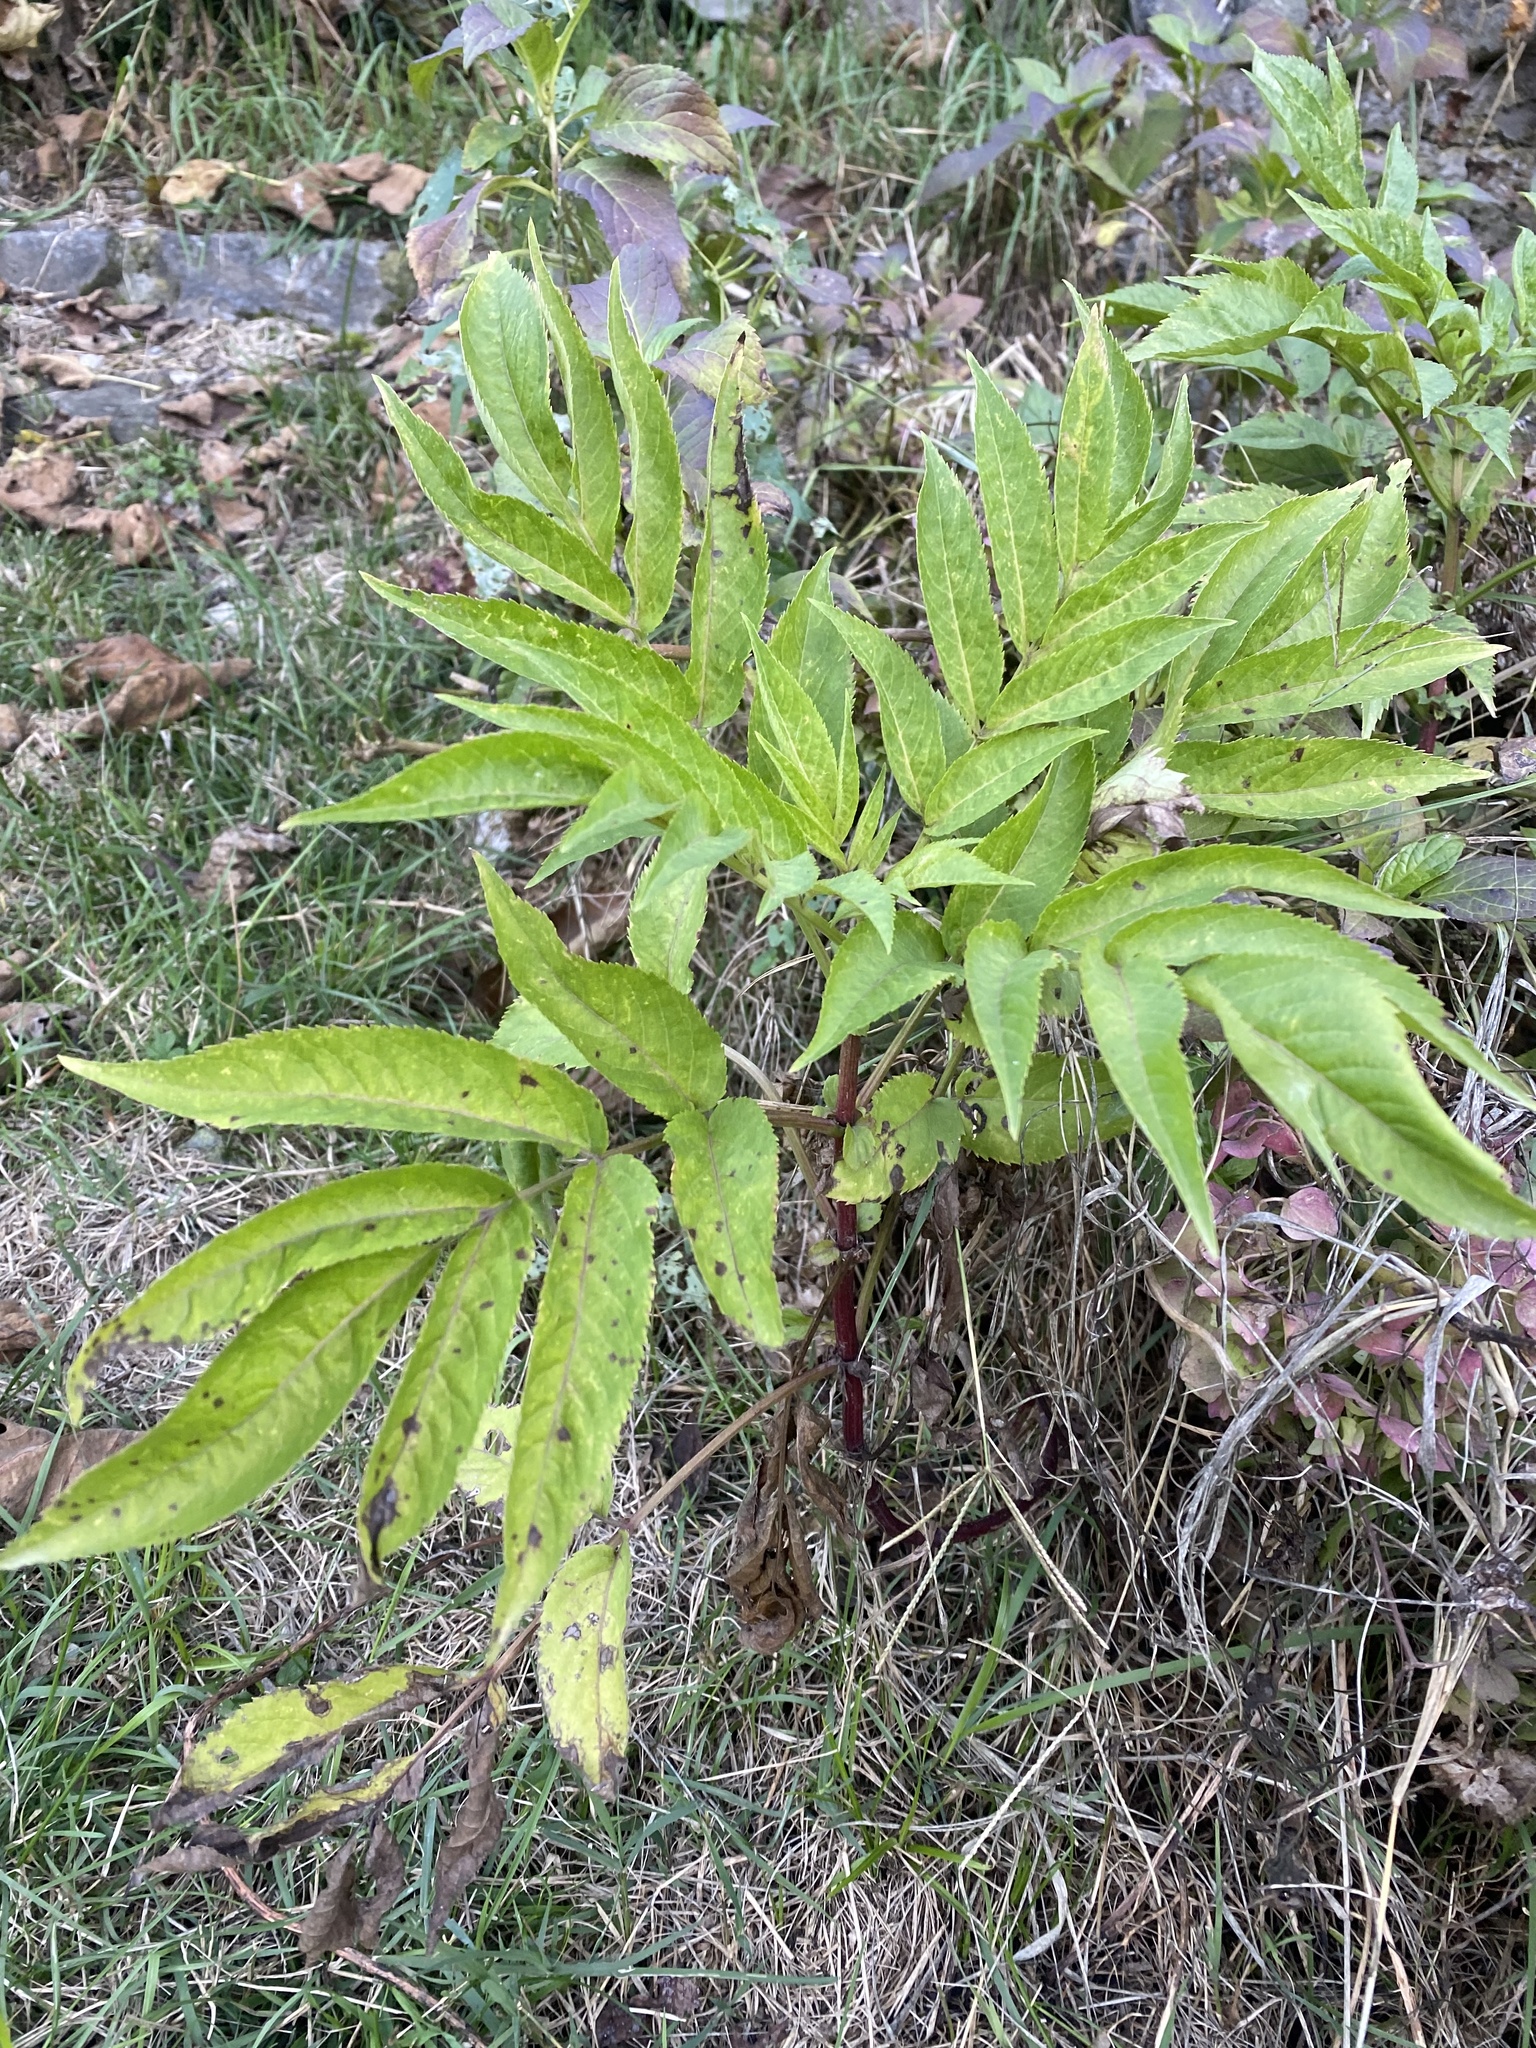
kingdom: Plantae
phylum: Tracheophyta
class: Magnoliopsida
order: Dipsacales
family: Viburnaceae
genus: Sambucus
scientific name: Sambucus ebulus
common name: Dwarf elder
